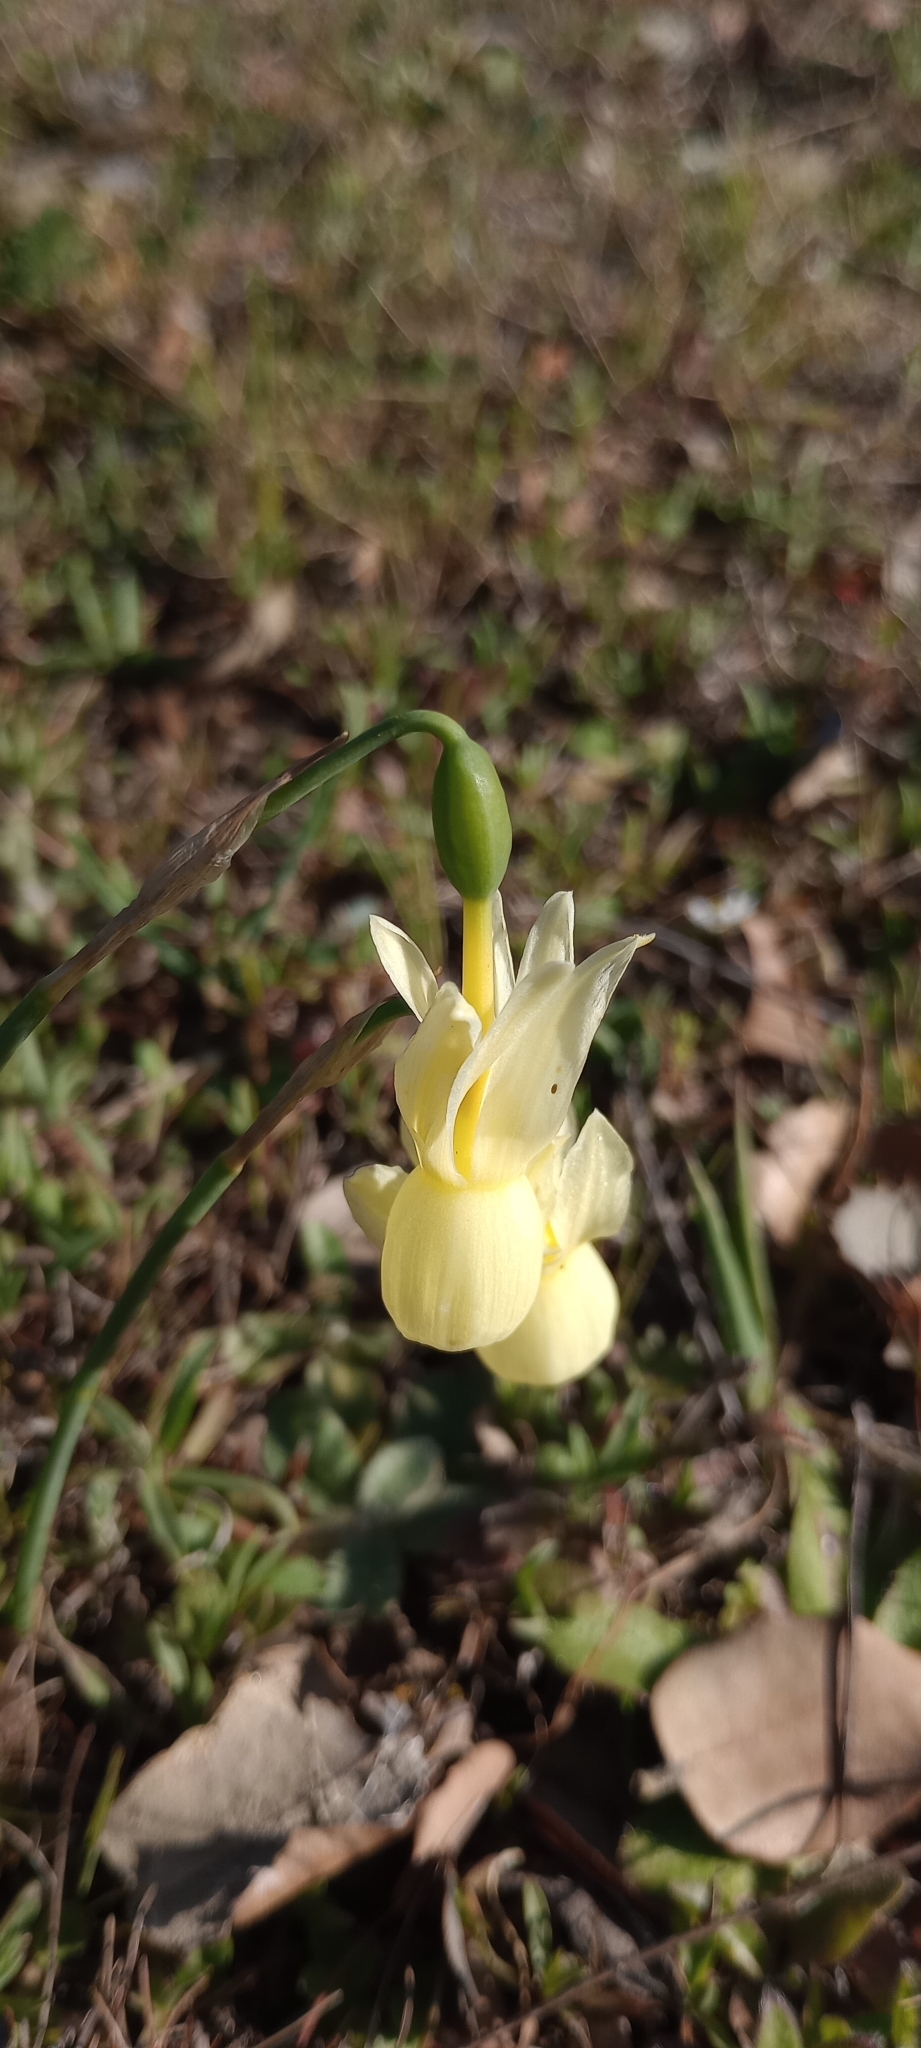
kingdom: Plantae
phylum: Tracheophyta
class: Liliopsida
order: Asparagales
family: Amaryllidaceae
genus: Narcissus
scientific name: Narcissus triandrus
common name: Angel's-tears
